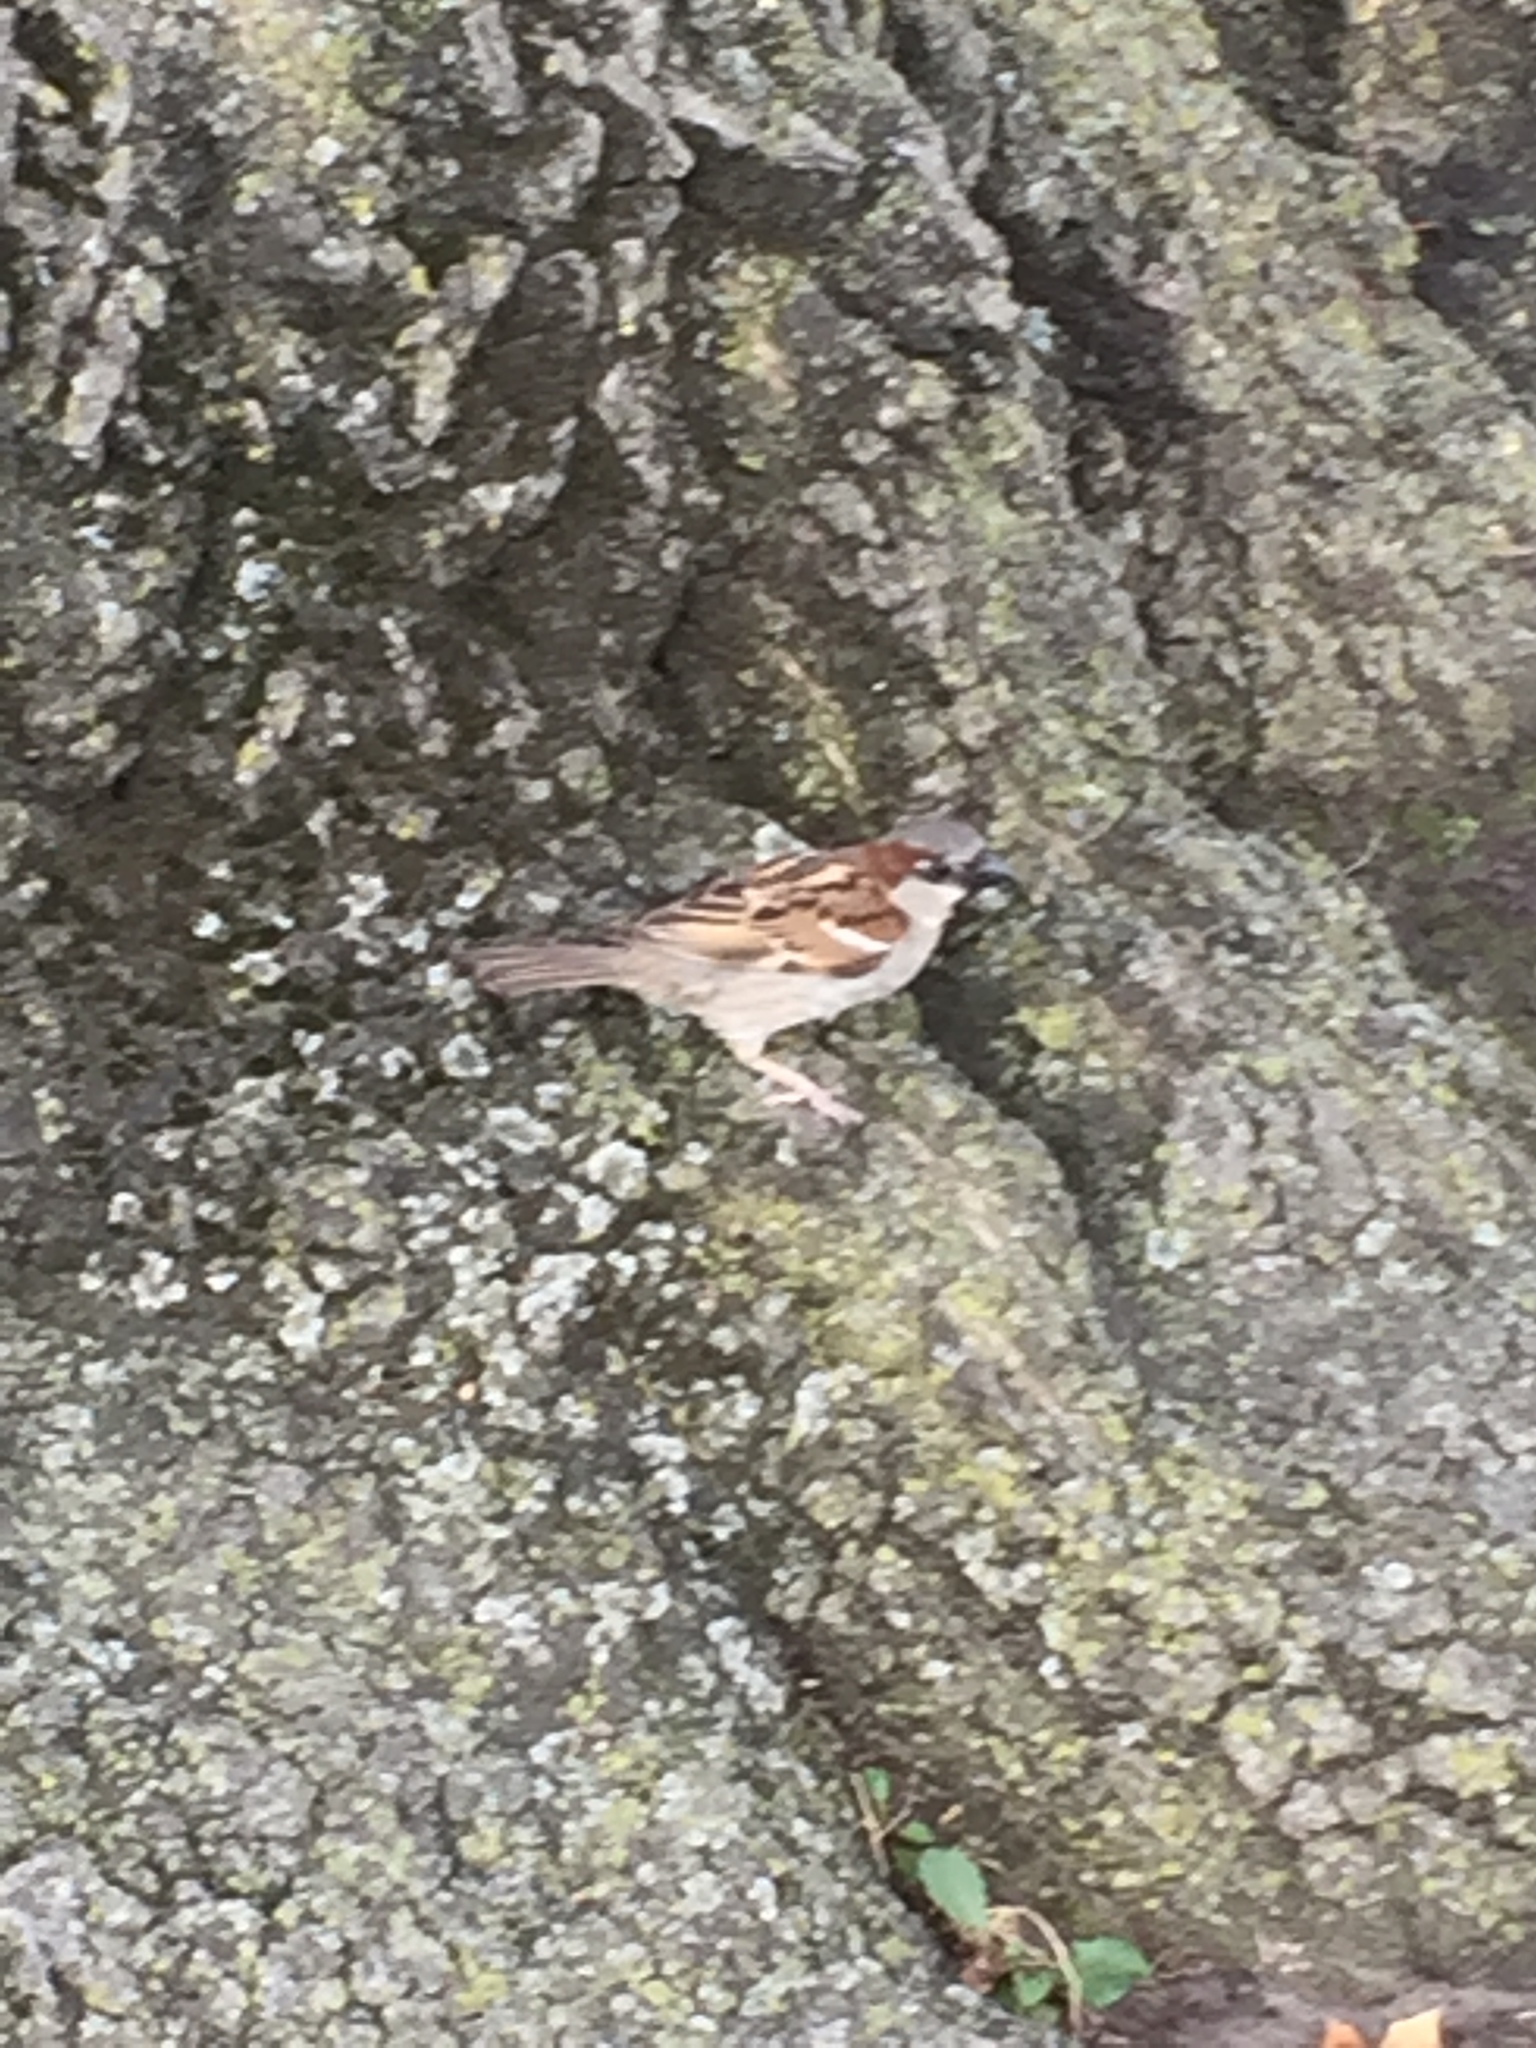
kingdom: Animalia
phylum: Chordata
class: Aves
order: Passeriformes
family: Passeridae
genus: Passer
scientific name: Passer domesticus
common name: House sparrow
